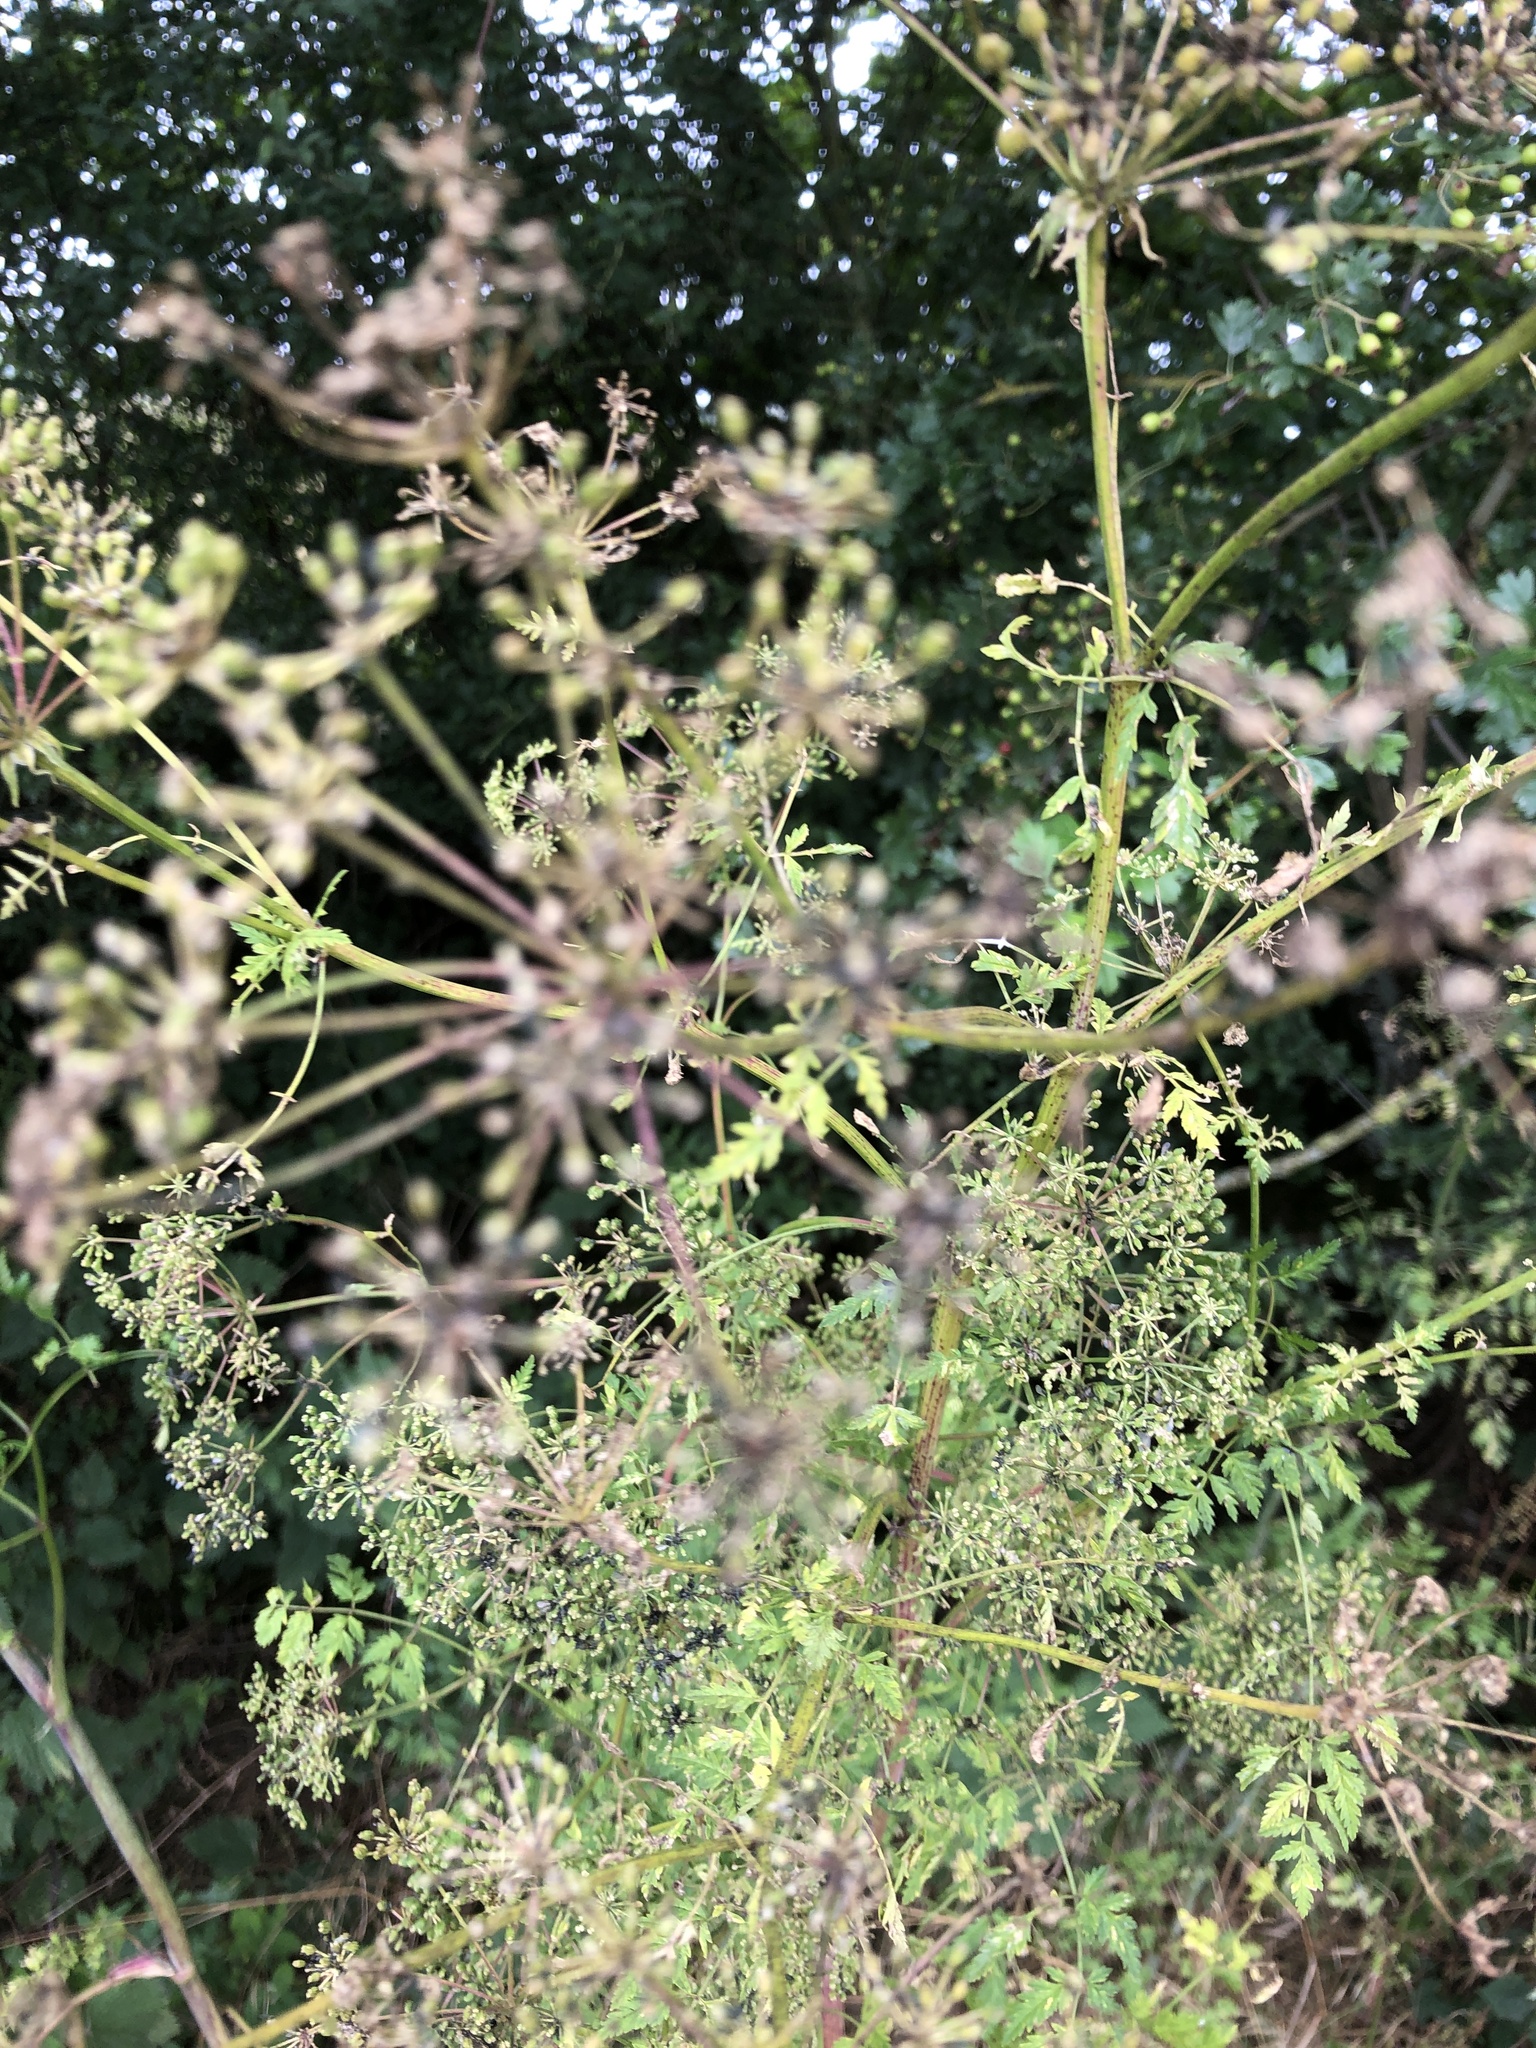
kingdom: Plantae
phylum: Tracheophyta
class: Magnoliopsida
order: Apiales
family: Apiaceae
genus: Conium
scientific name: Conium maculatum
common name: Hemlock
